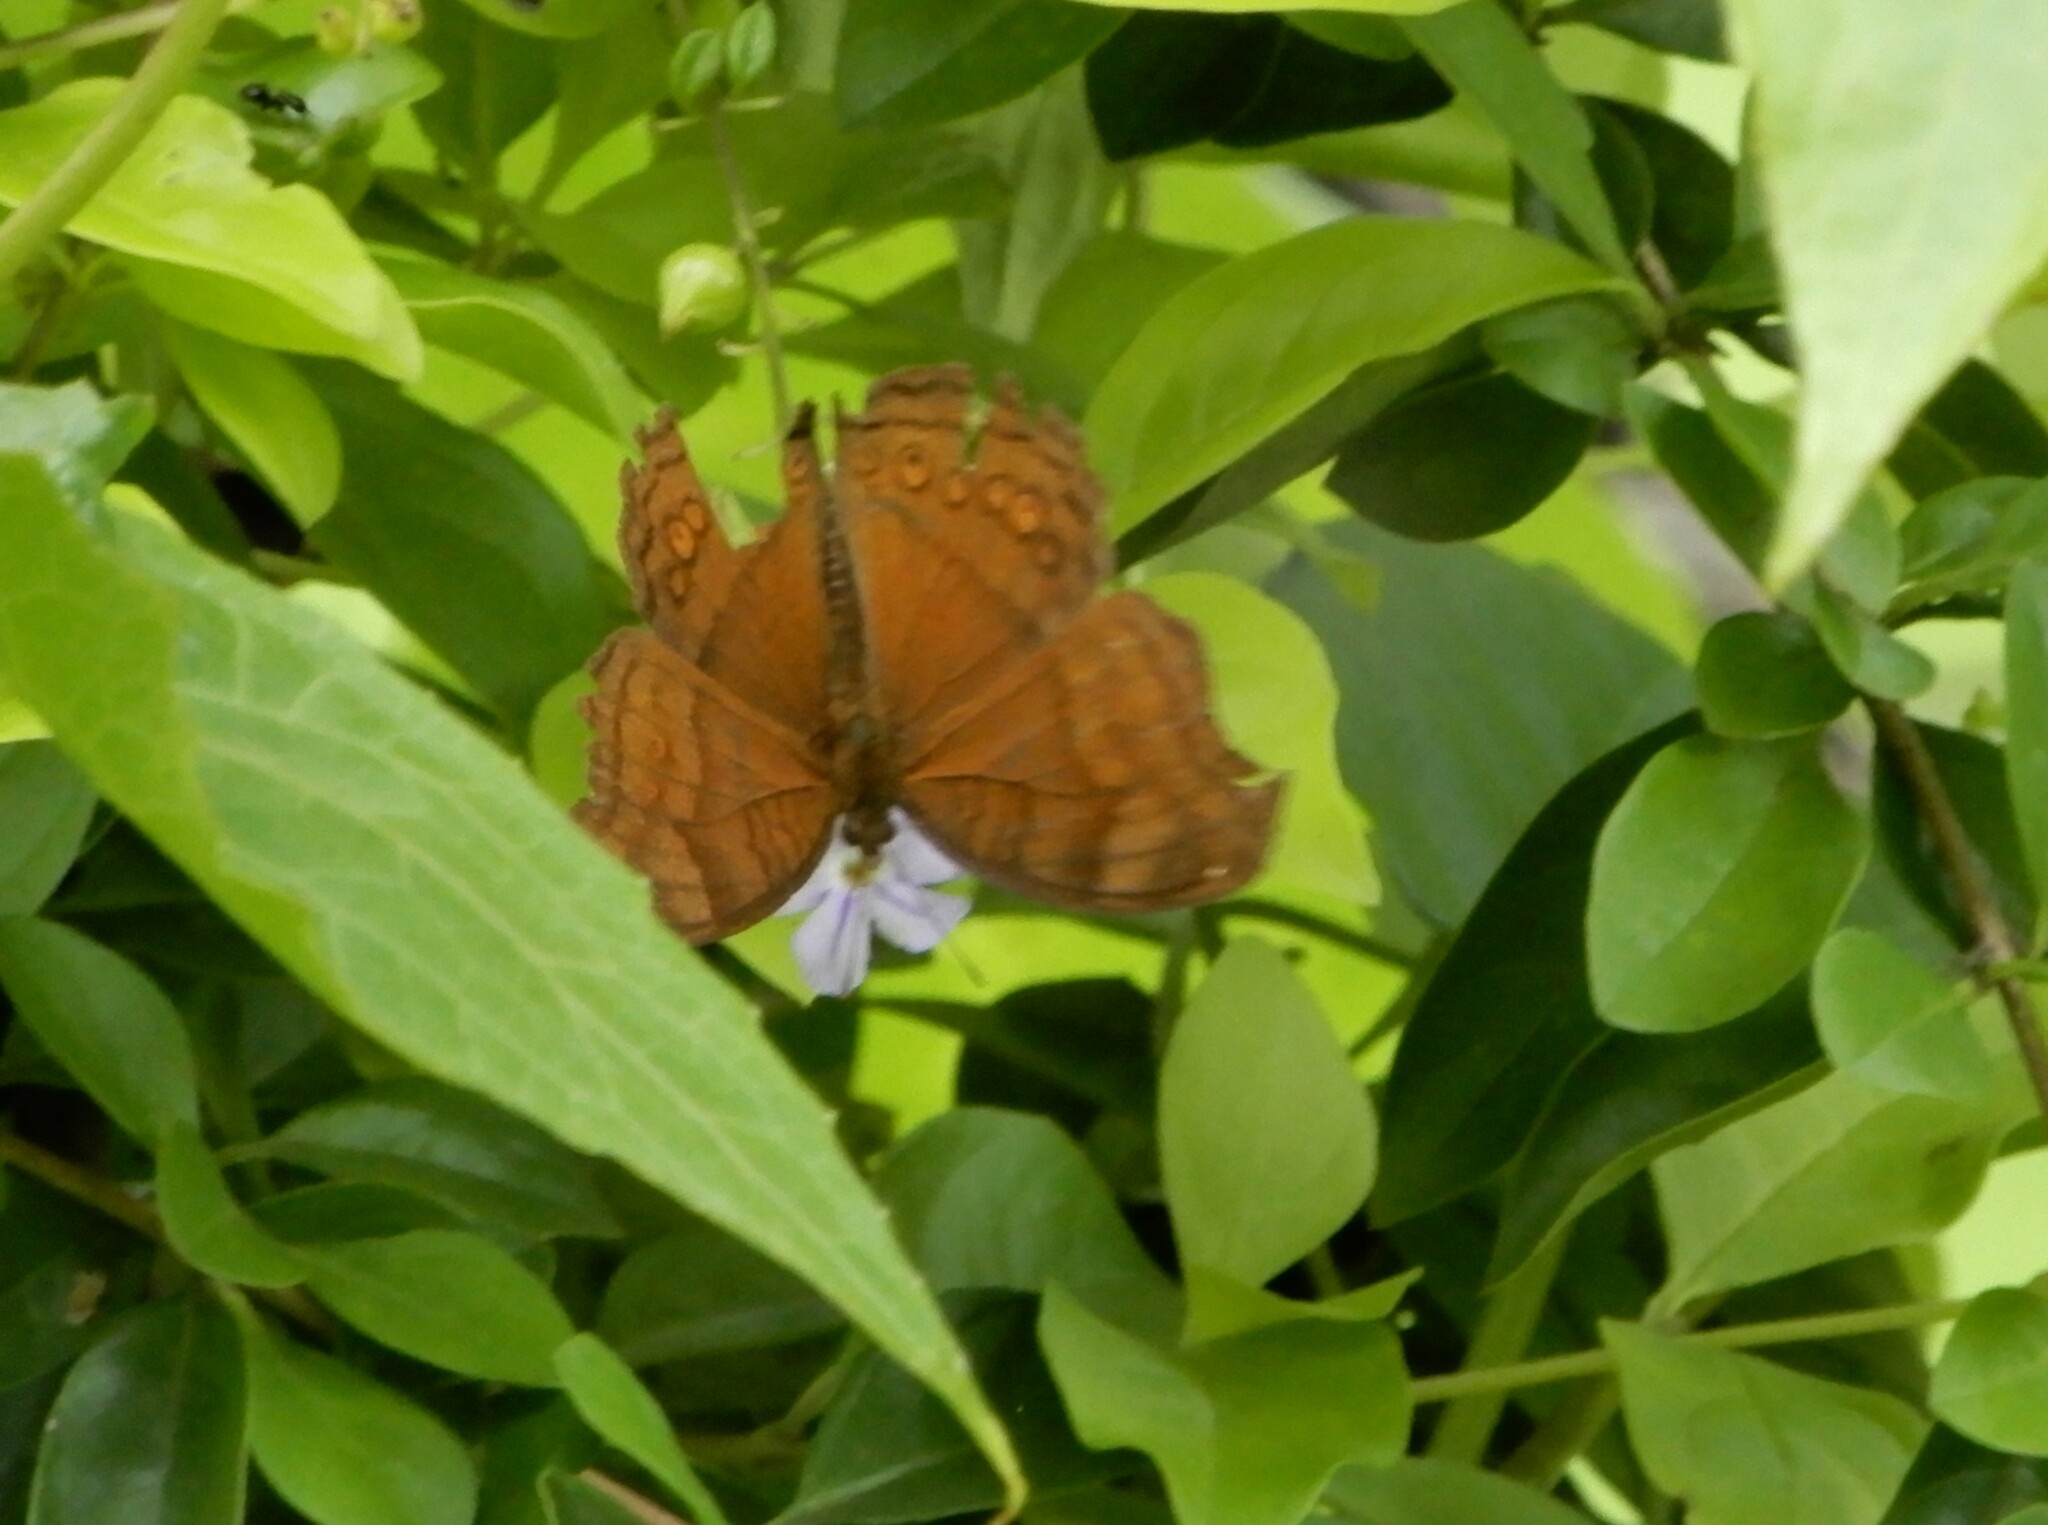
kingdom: Animalia
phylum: Arthropoda
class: Insecta
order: Lepidoptera
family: Nymphalidae
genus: Junonia
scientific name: Junonia hedonia
